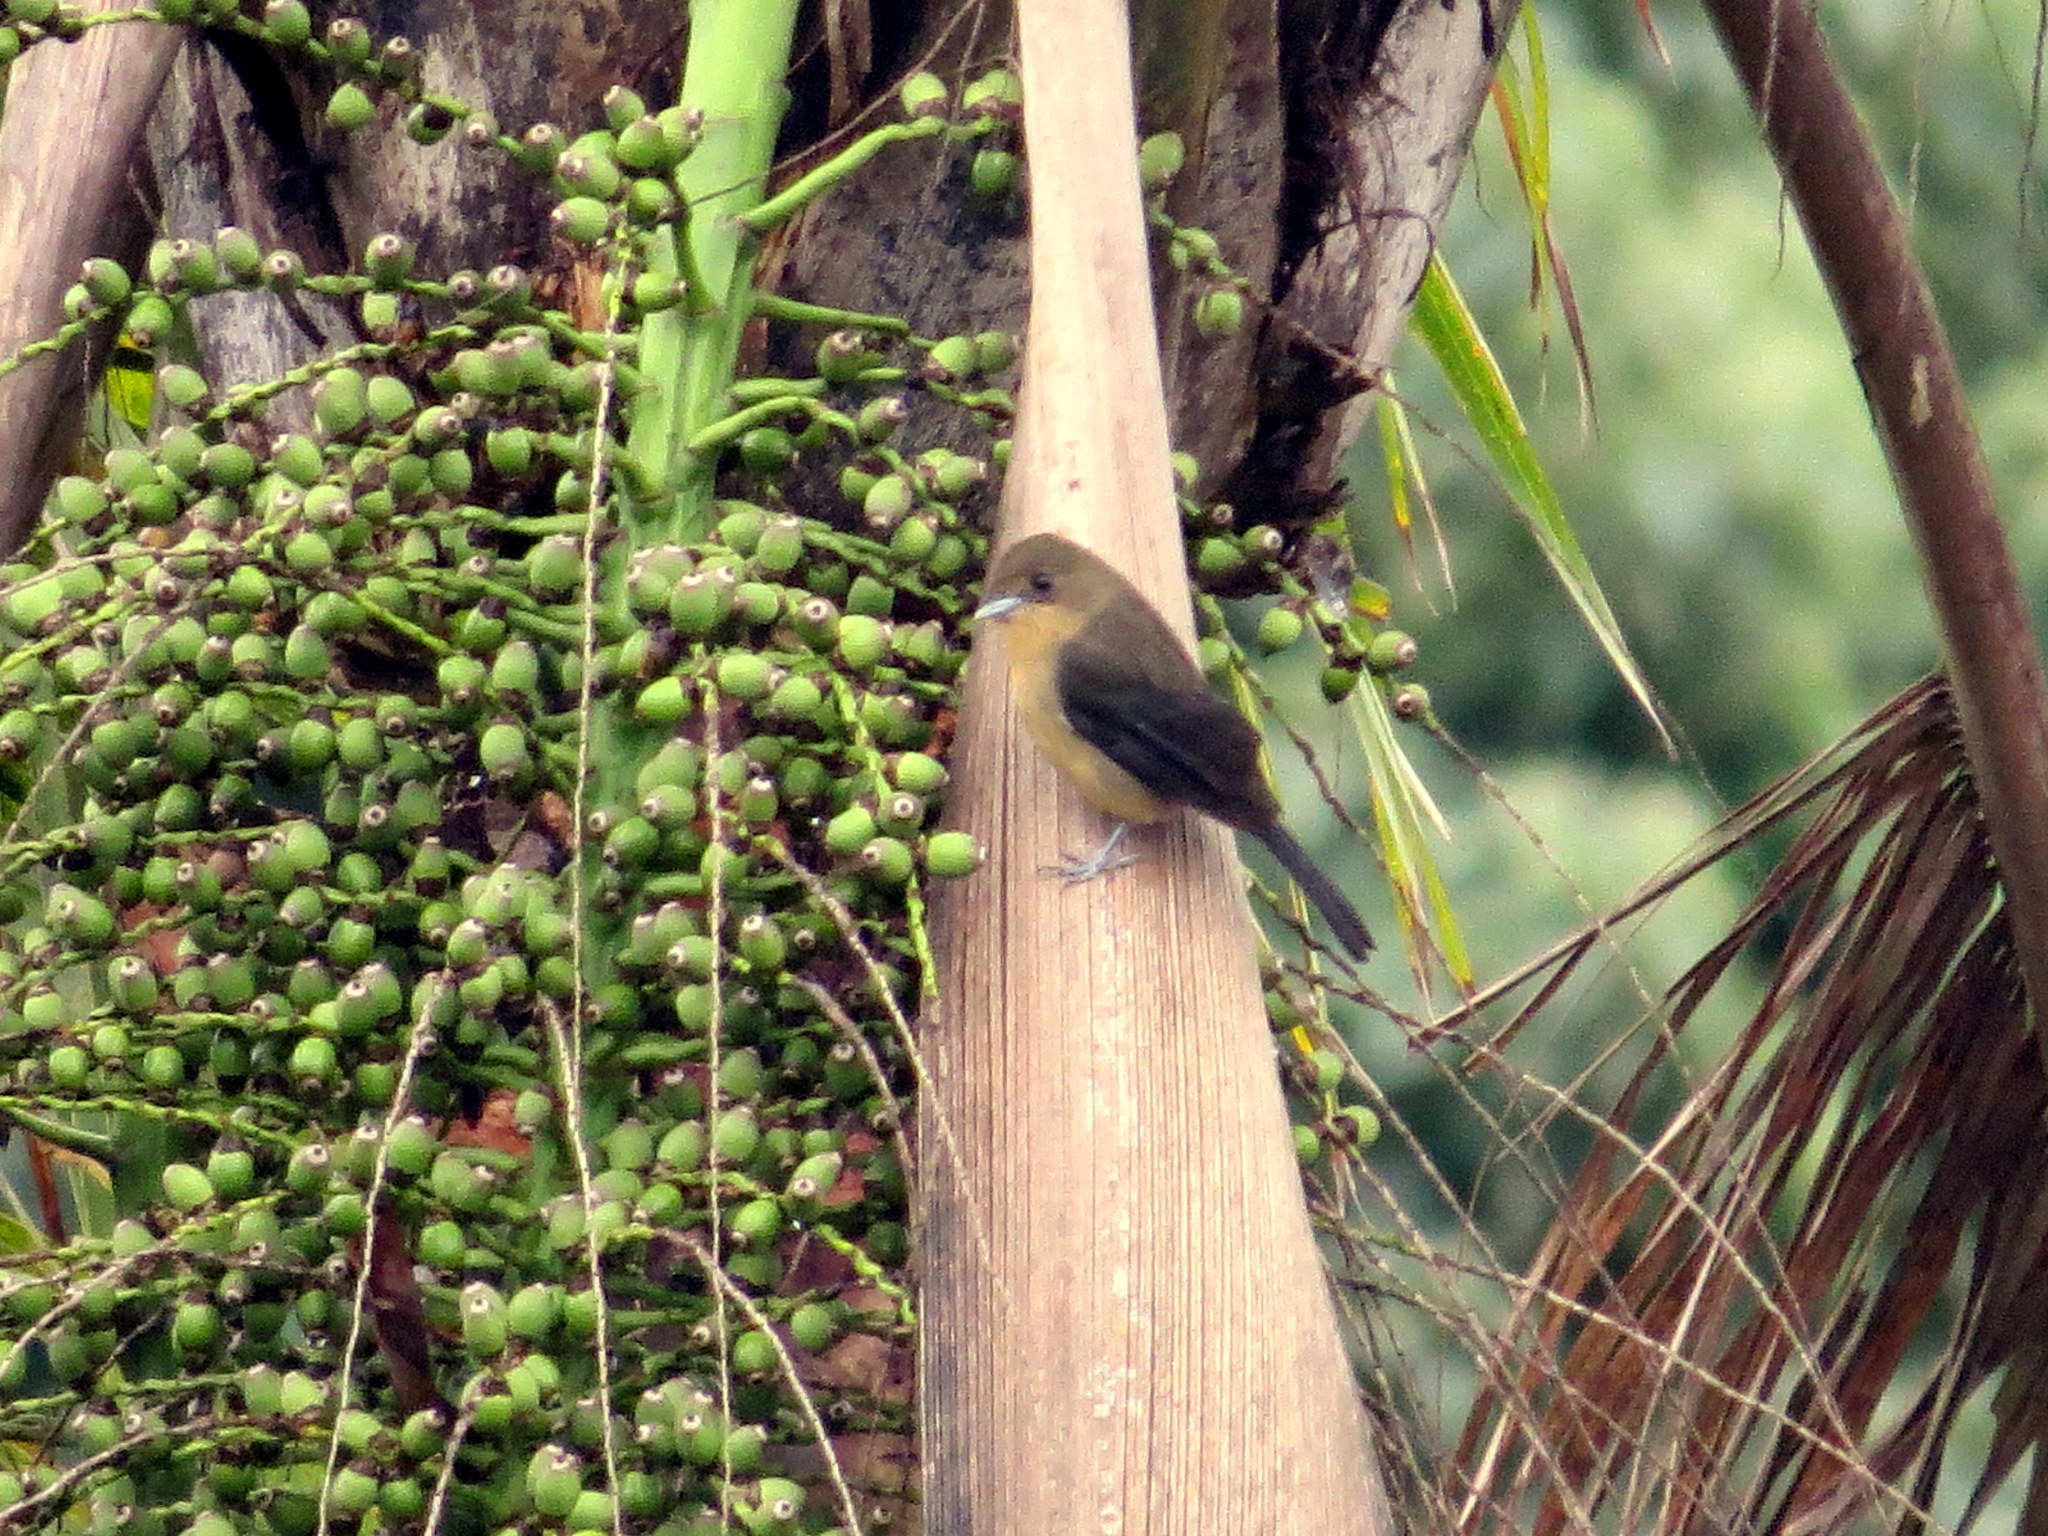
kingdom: Animalia
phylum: Chordata
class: Aves
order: Passeriformes
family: Thraupidae
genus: Trichothraupis
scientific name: Trichothraupis melanops
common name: Black-goggled tanager
